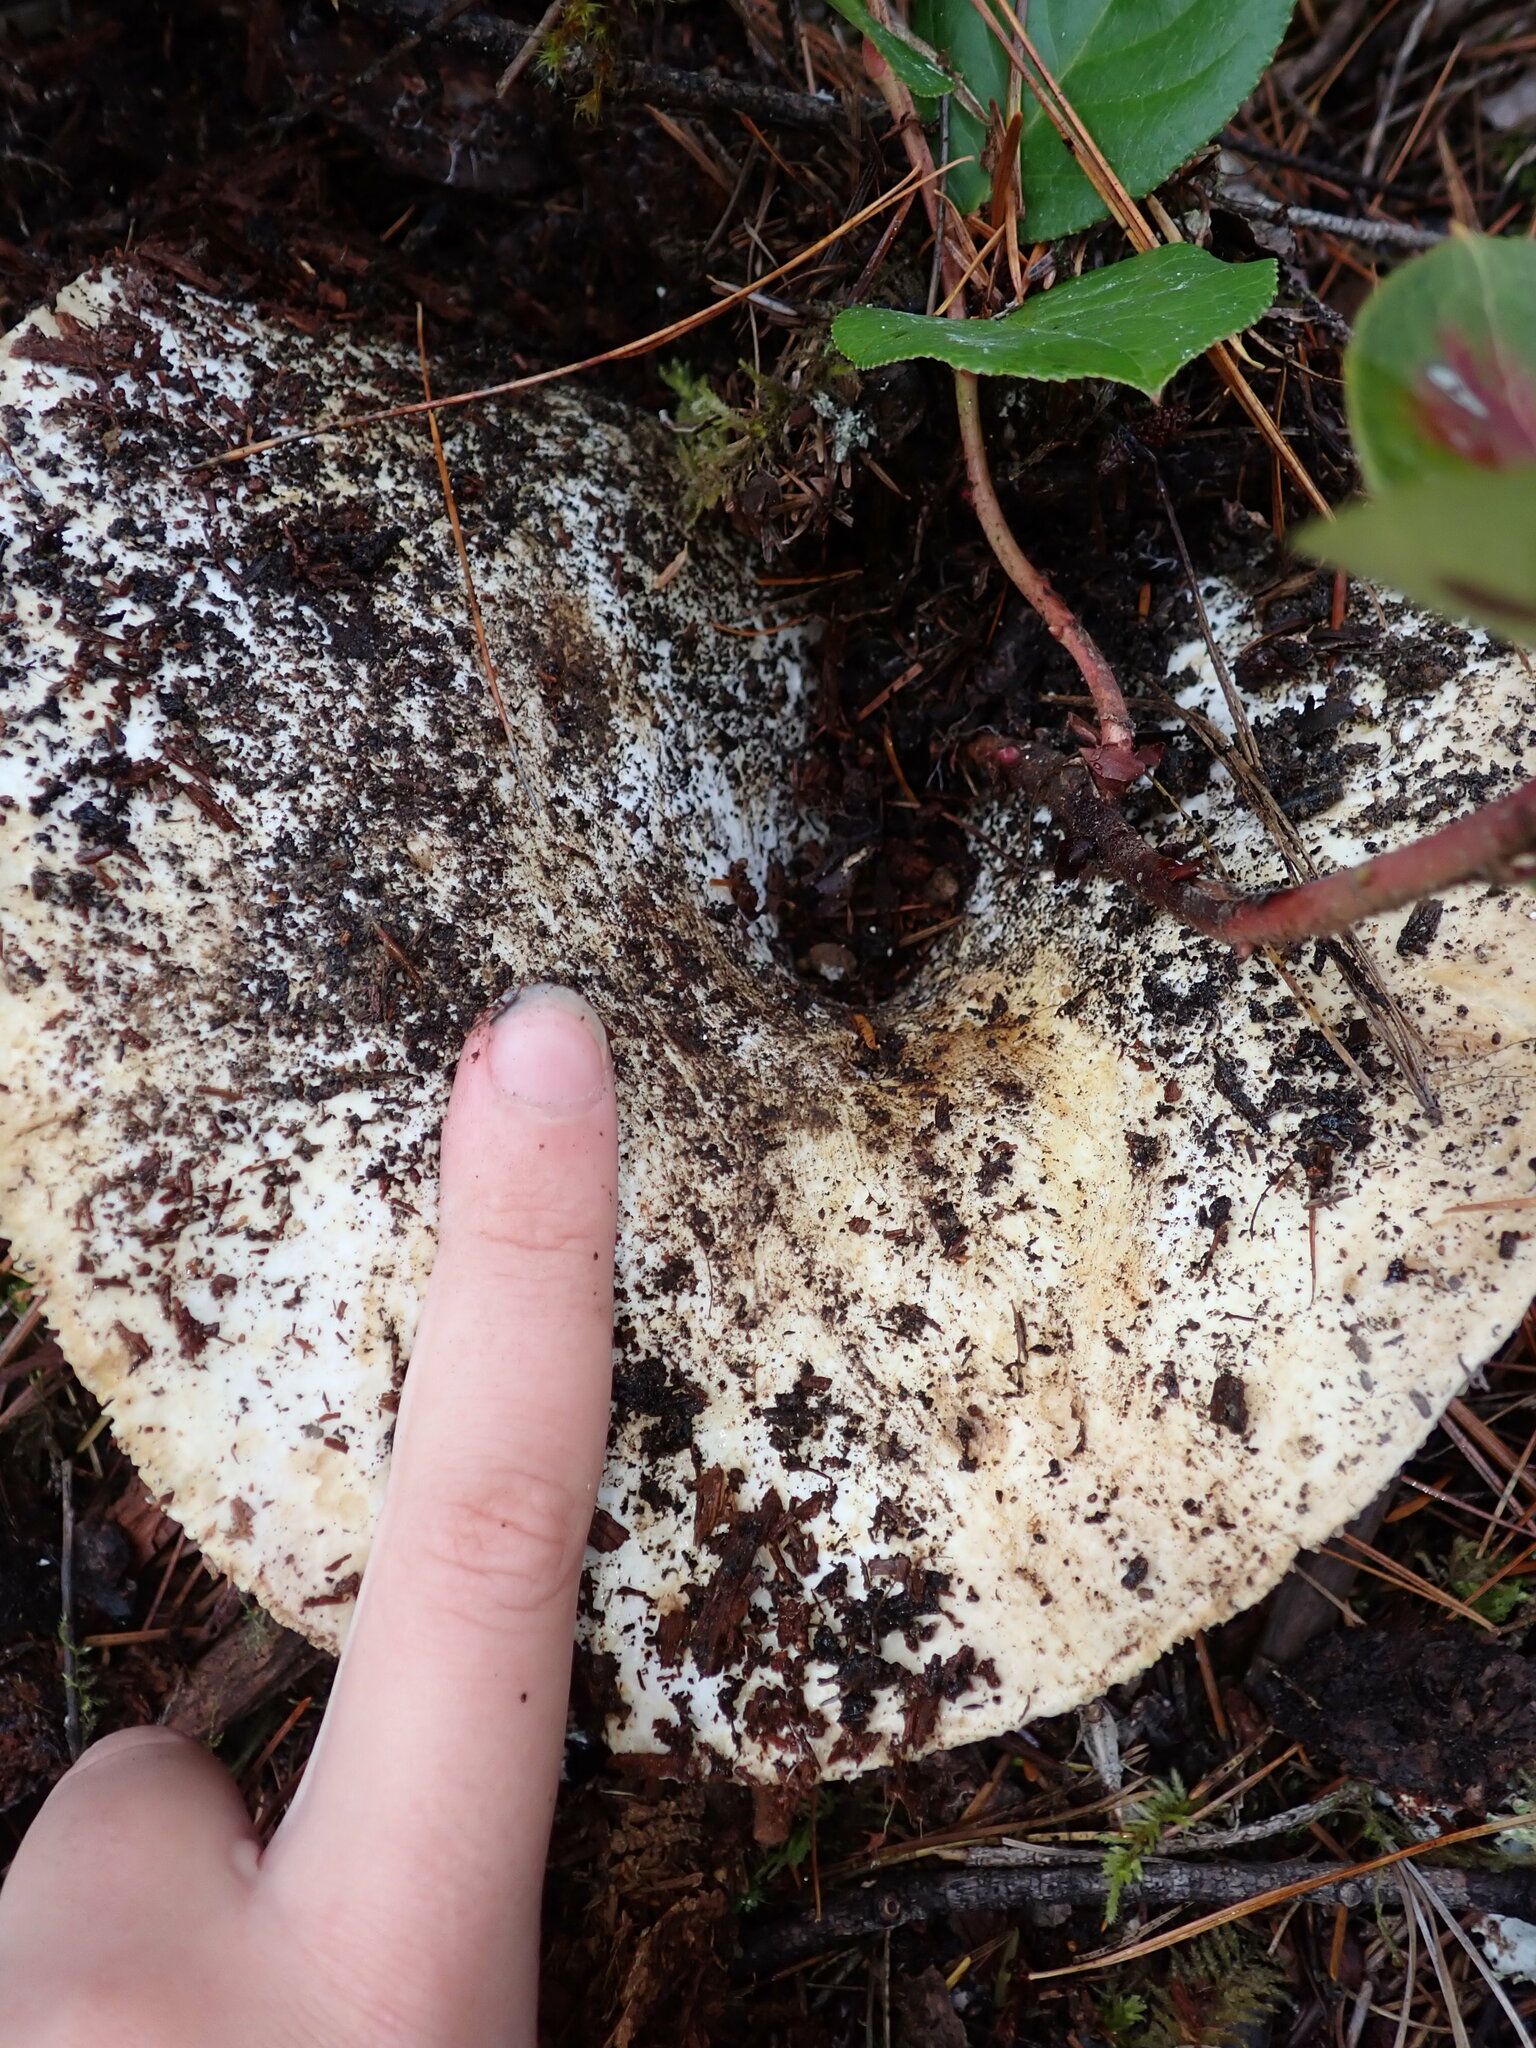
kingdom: Fungi
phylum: Basidiomycota
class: Agaricomycetes
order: Russulales
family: Russulaceae
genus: Russula
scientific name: Russula brevipes
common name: Short-stemmed russula
